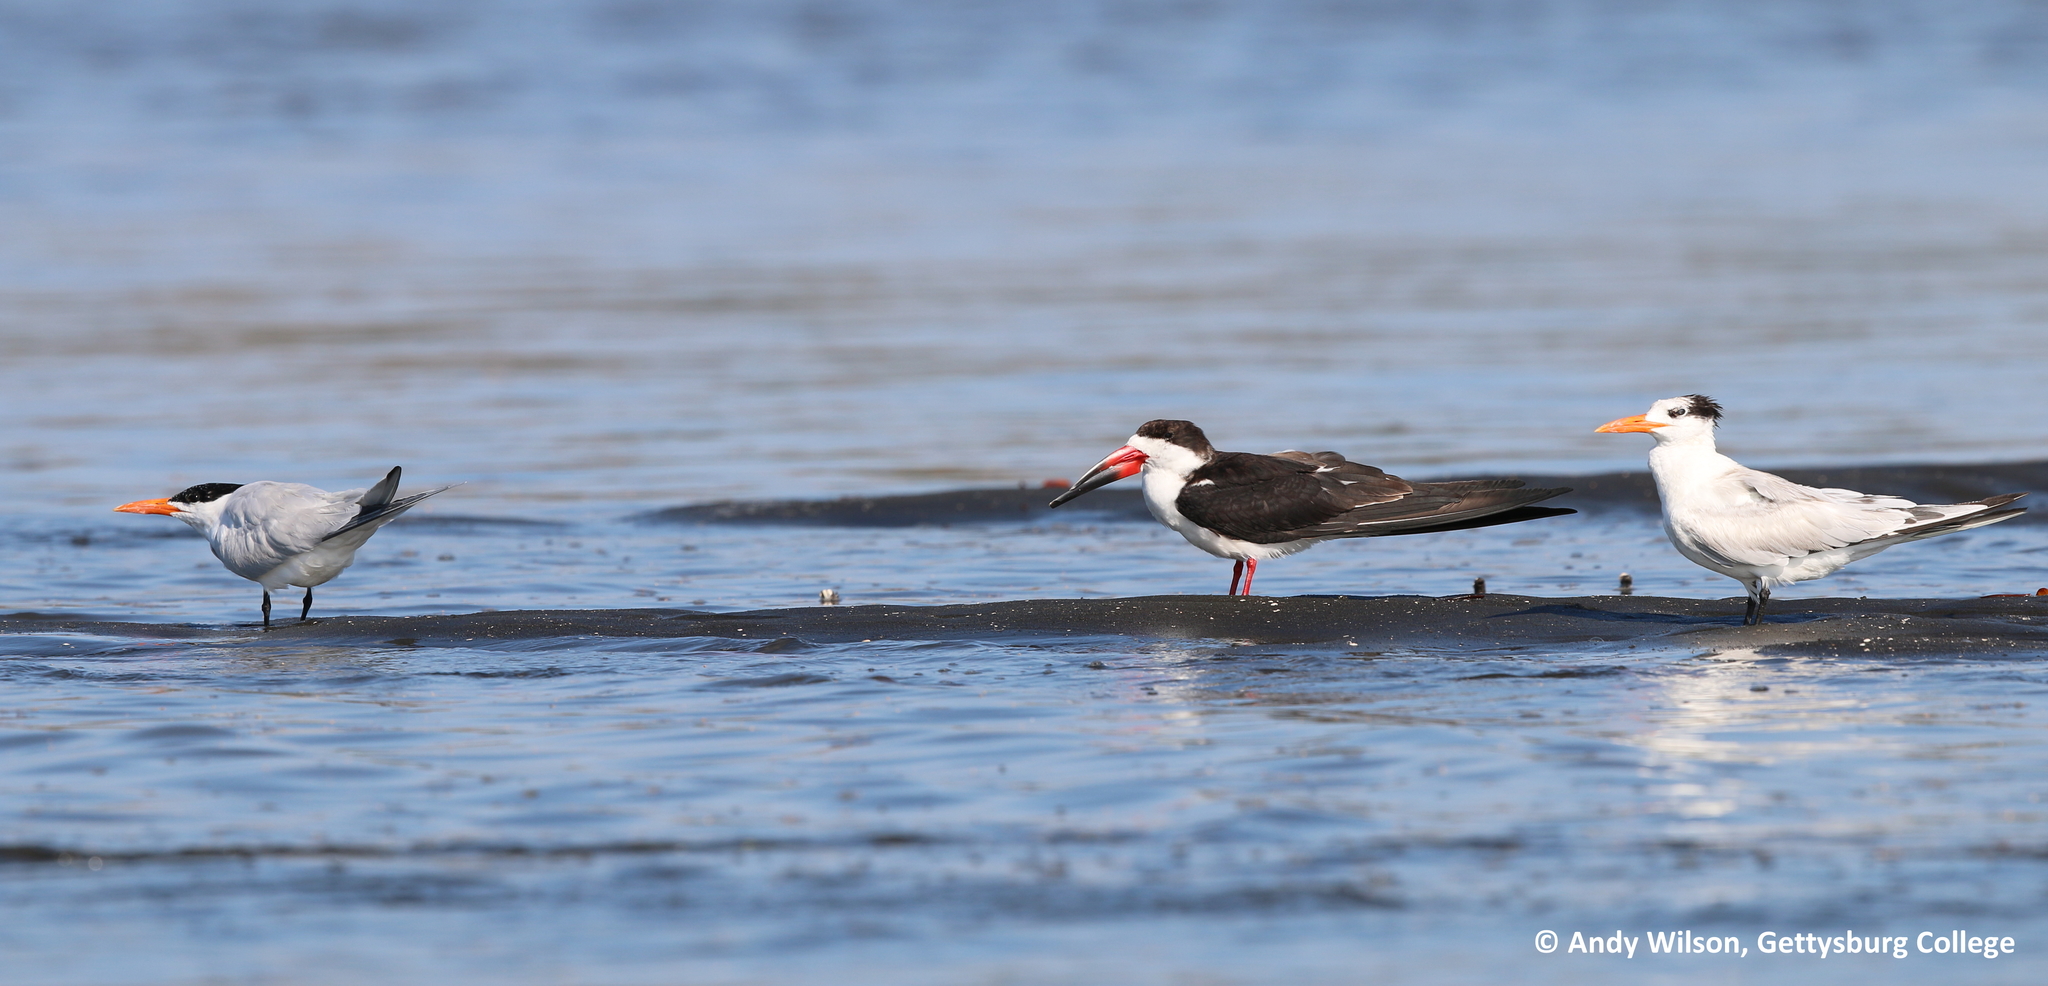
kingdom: Animalia
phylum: Chordata
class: Aves
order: Charadriiformes
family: Laridae
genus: Rynchops
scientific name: Rynchops niger
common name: Black skimmer
